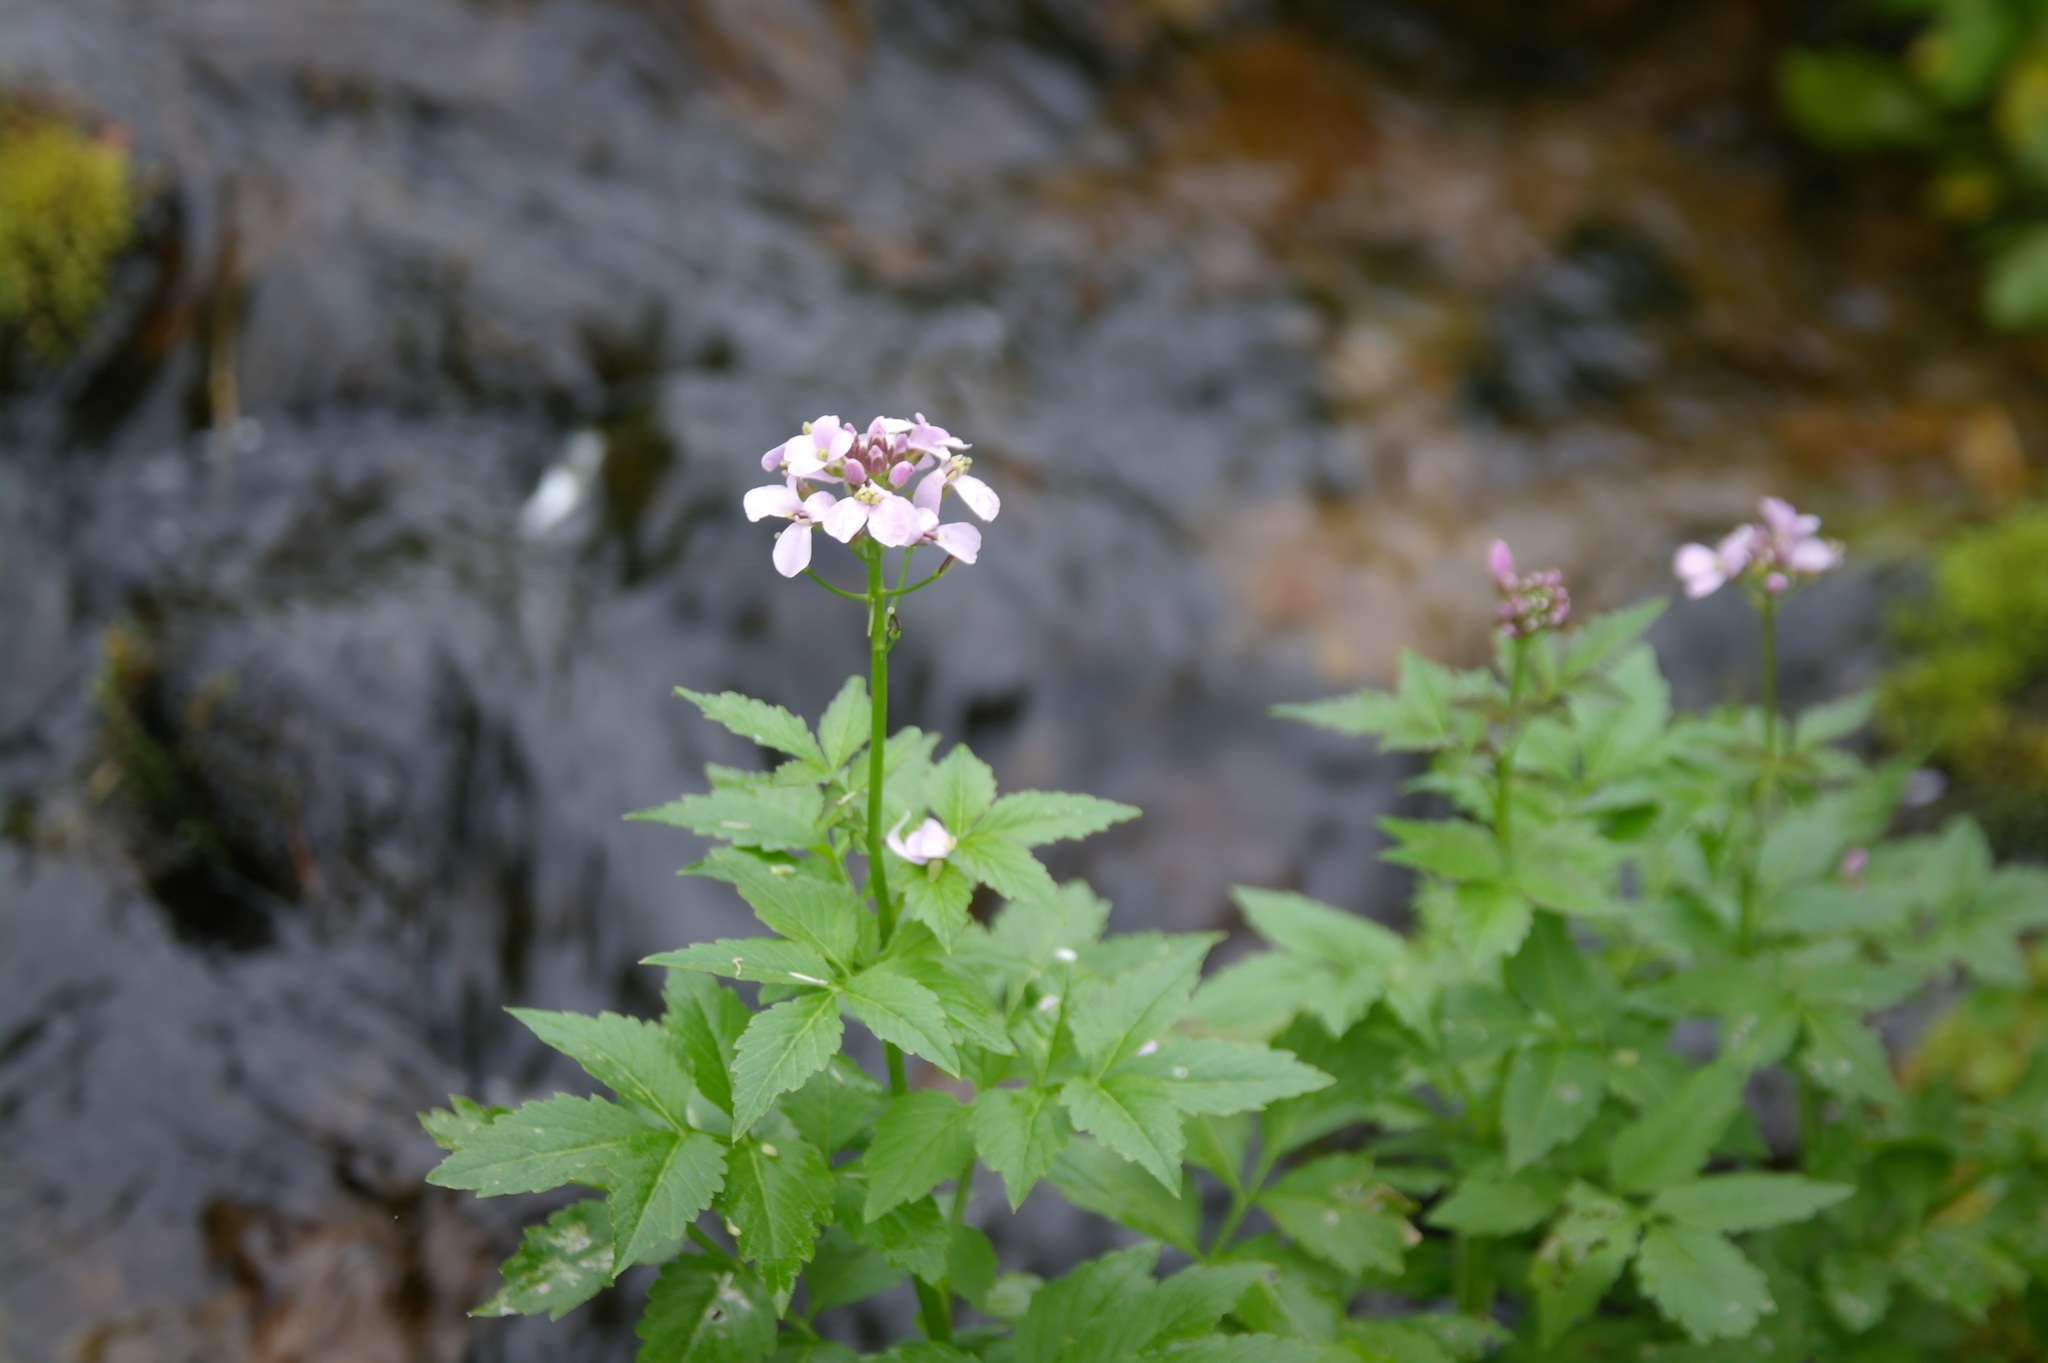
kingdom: Plantae
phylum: Tracheophyta
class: Magnoliopsida
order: Brassicales
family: Brassicaceae
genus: Cardamine
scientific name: Cardamine macrophylla
